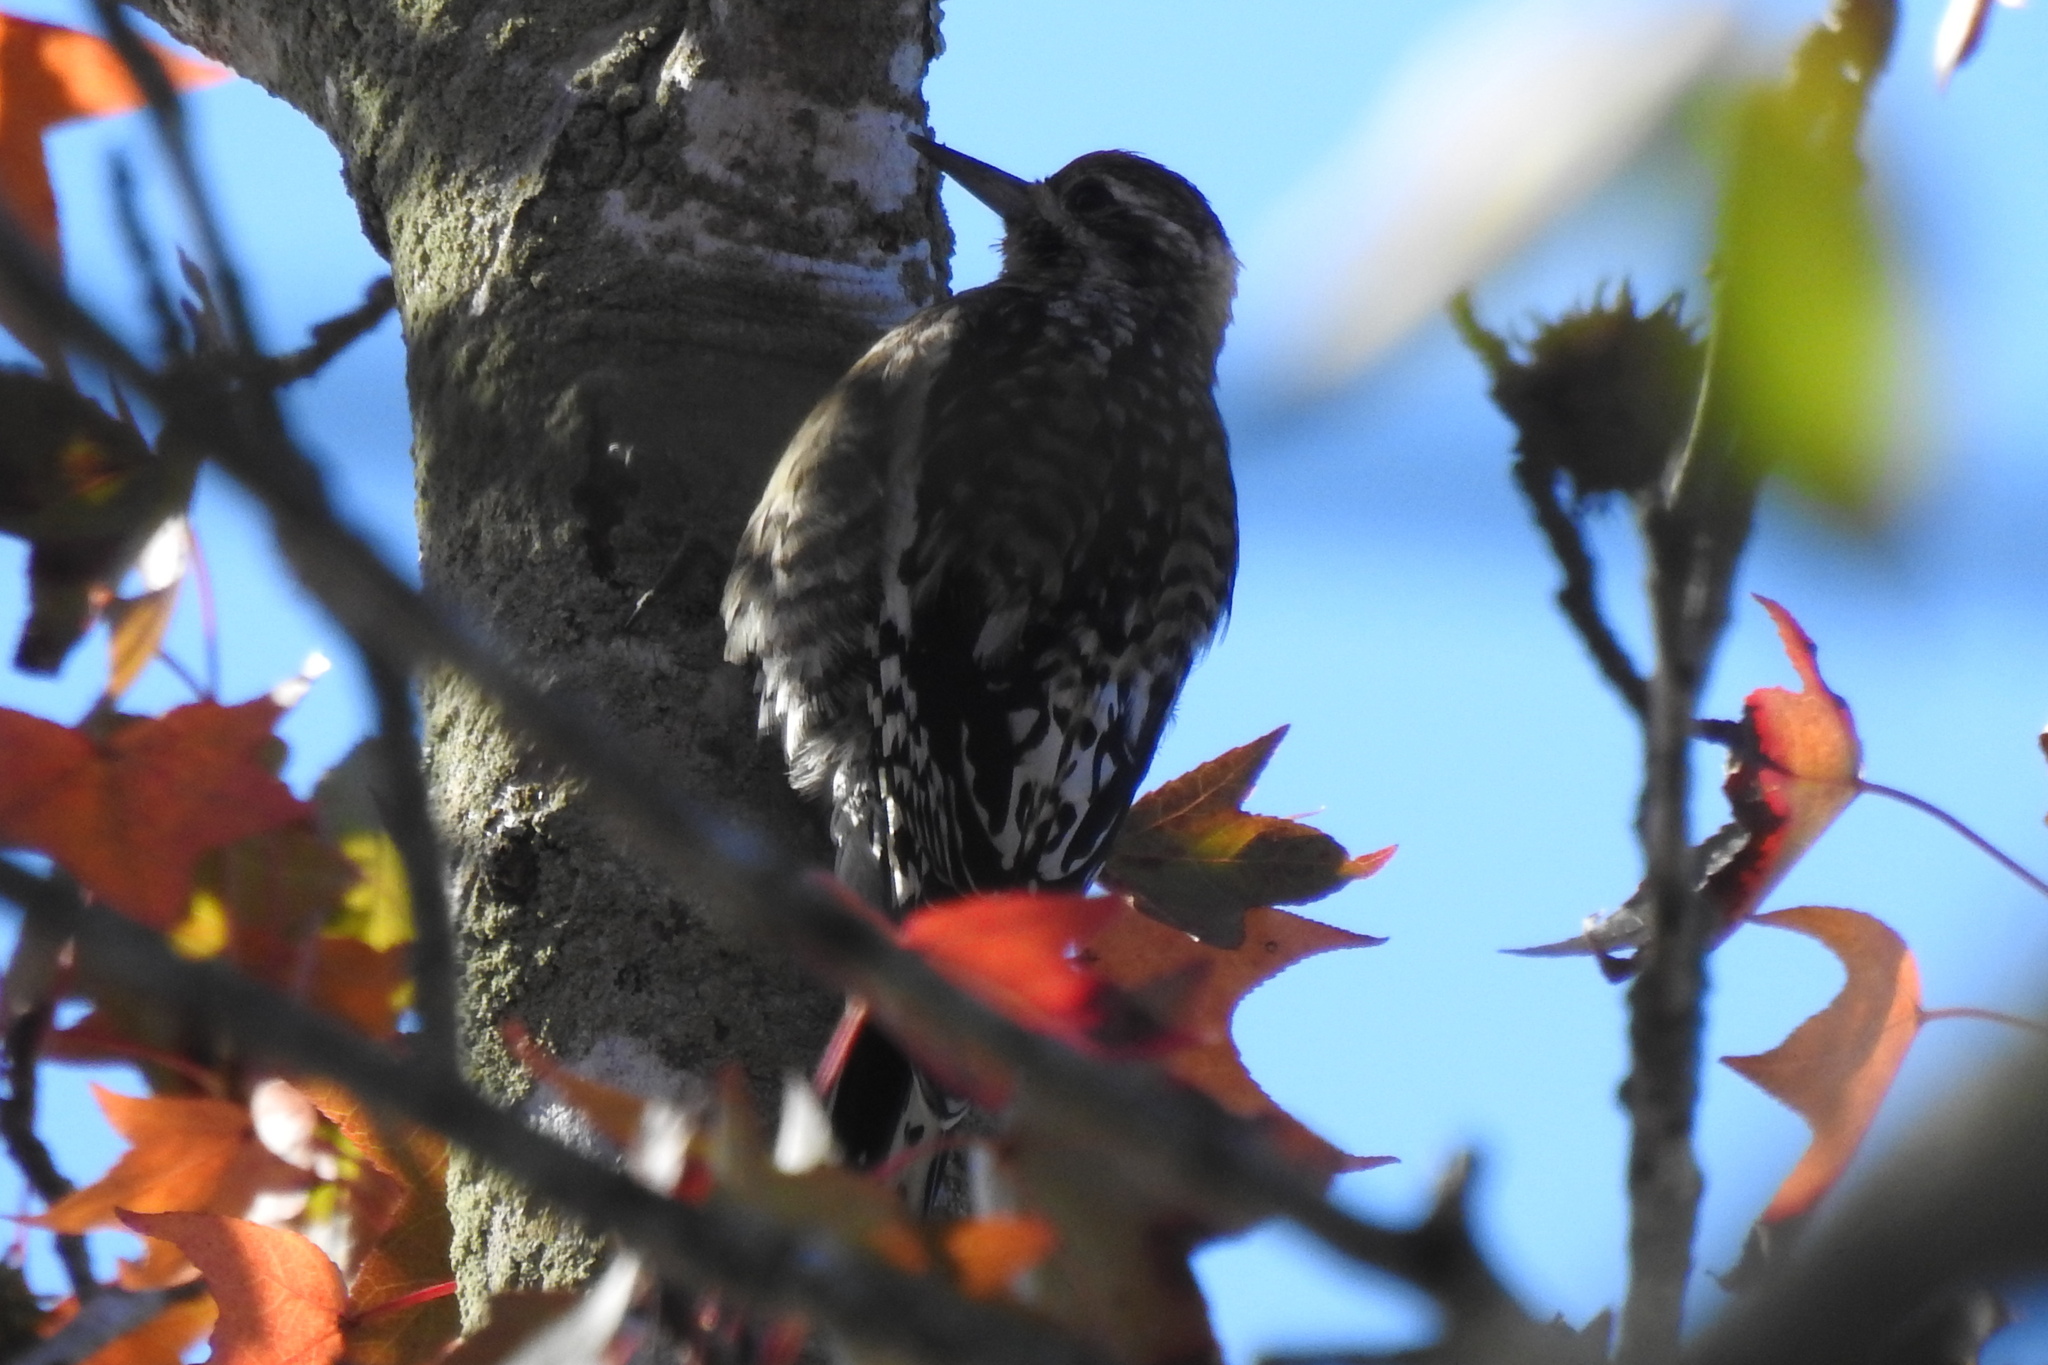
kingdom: Animalia
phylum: Chordata
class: Aves
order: Piciformes
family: Picidae
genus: Sphyrapicus
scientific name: Sphyrapicus varius
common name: Yellow-bellied sapsucker
